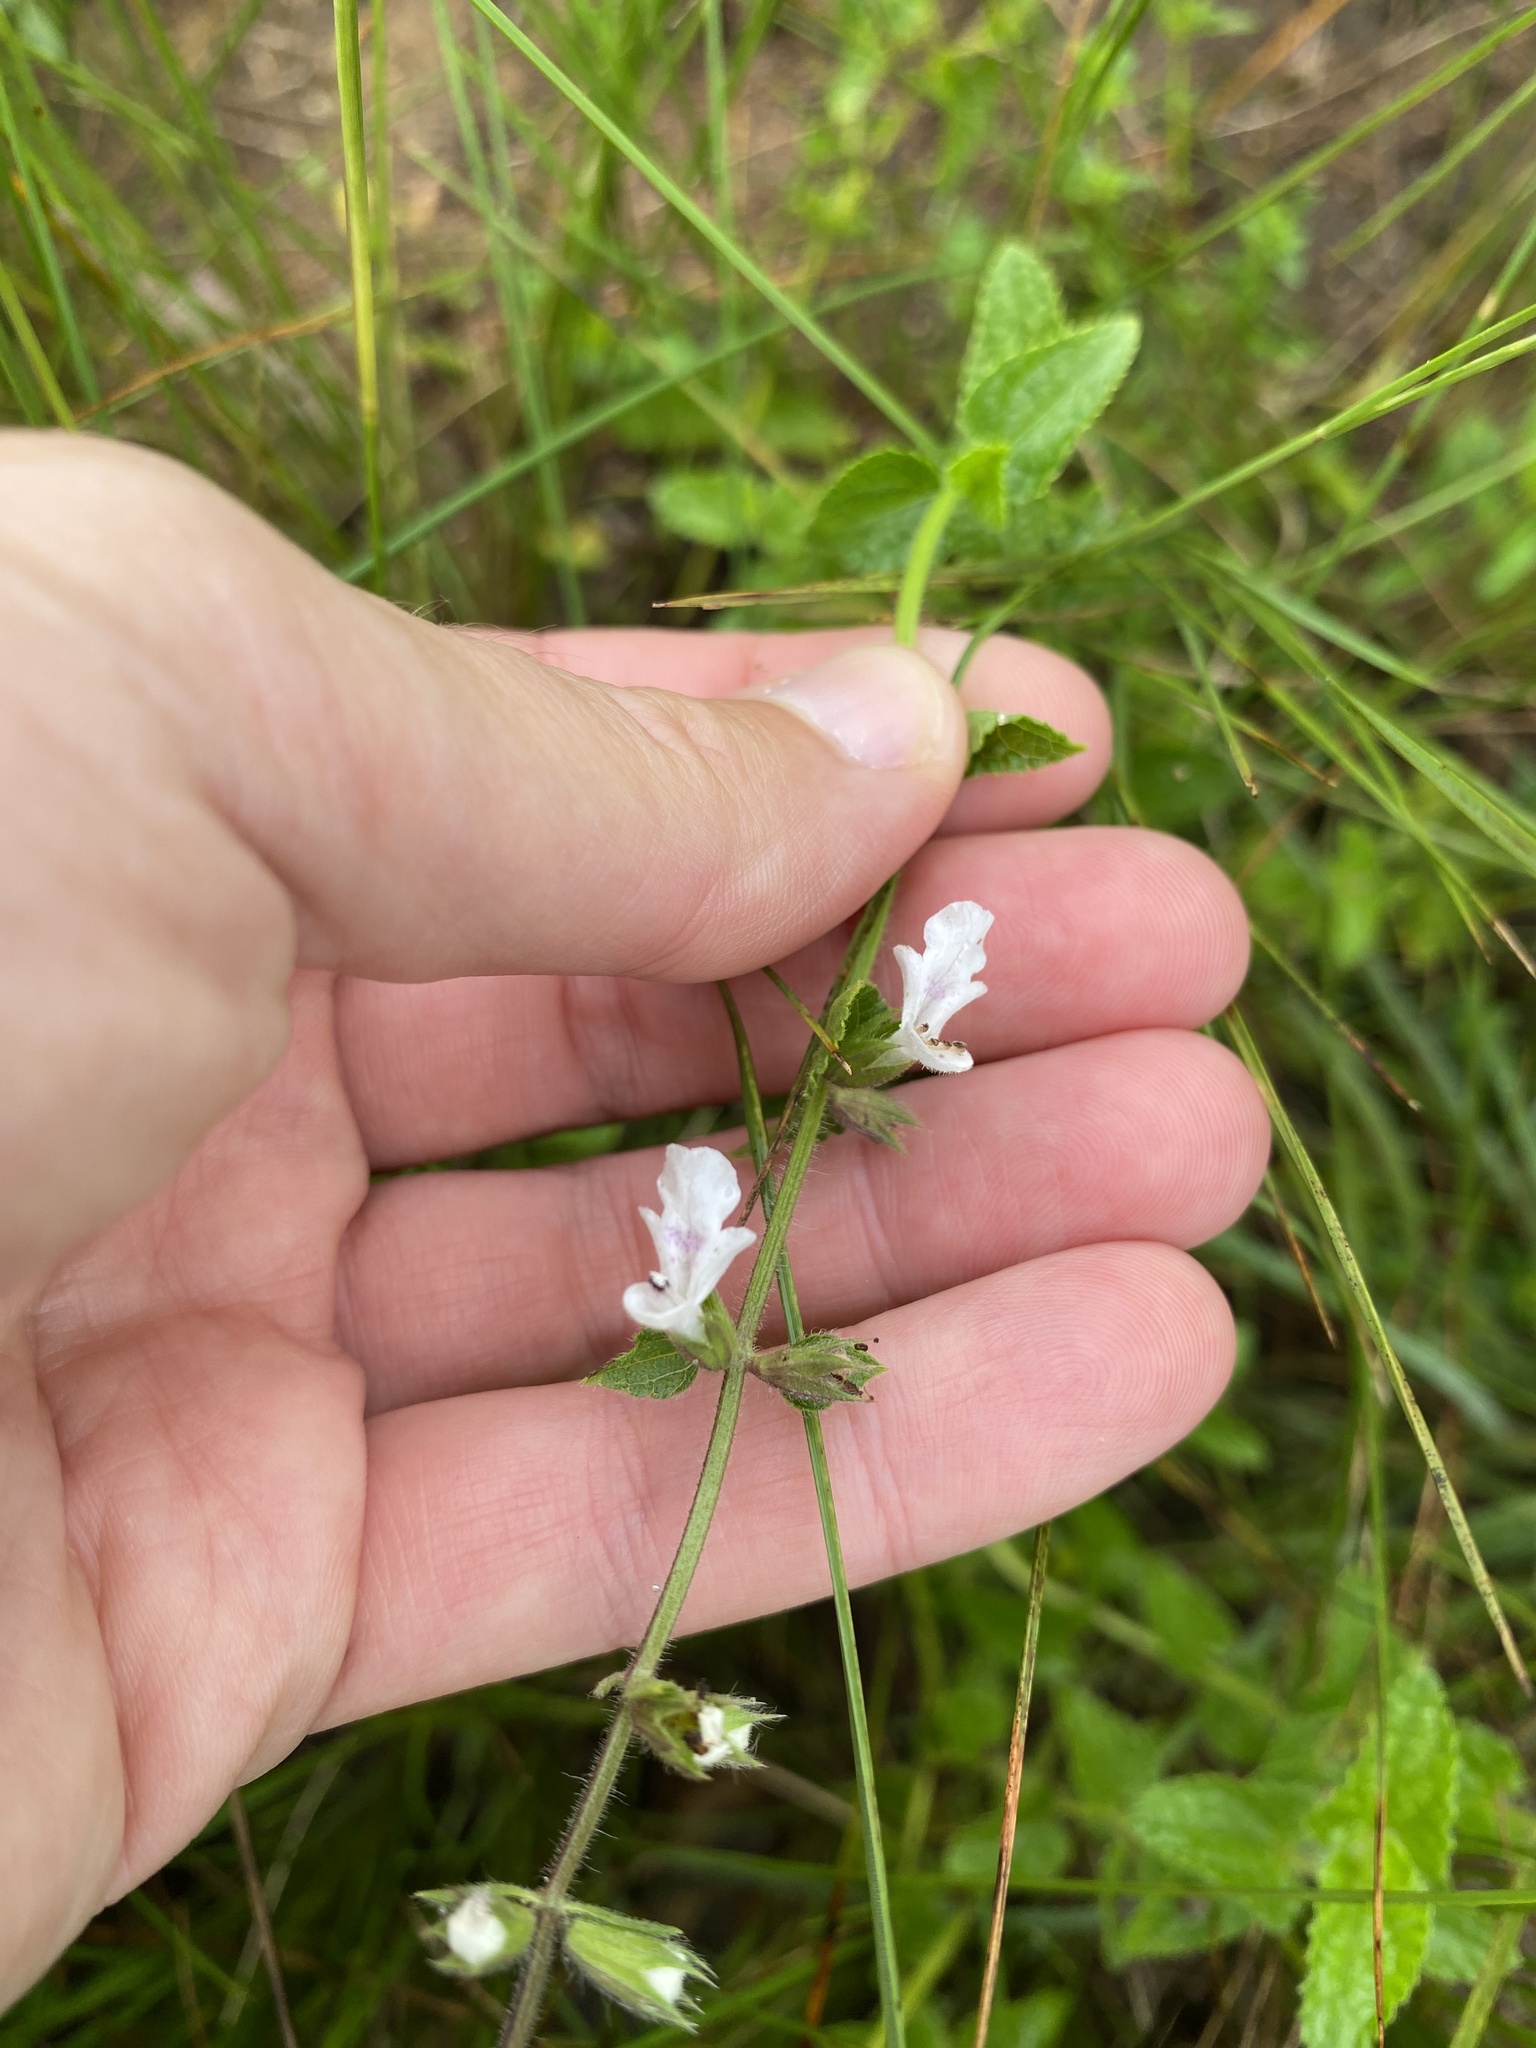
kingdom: Plantae
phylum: Tracheophyta
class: Magnoliopsida
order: Lamiales
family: Lamiaceae
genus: Stachys
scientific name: Stachys aethiopica
